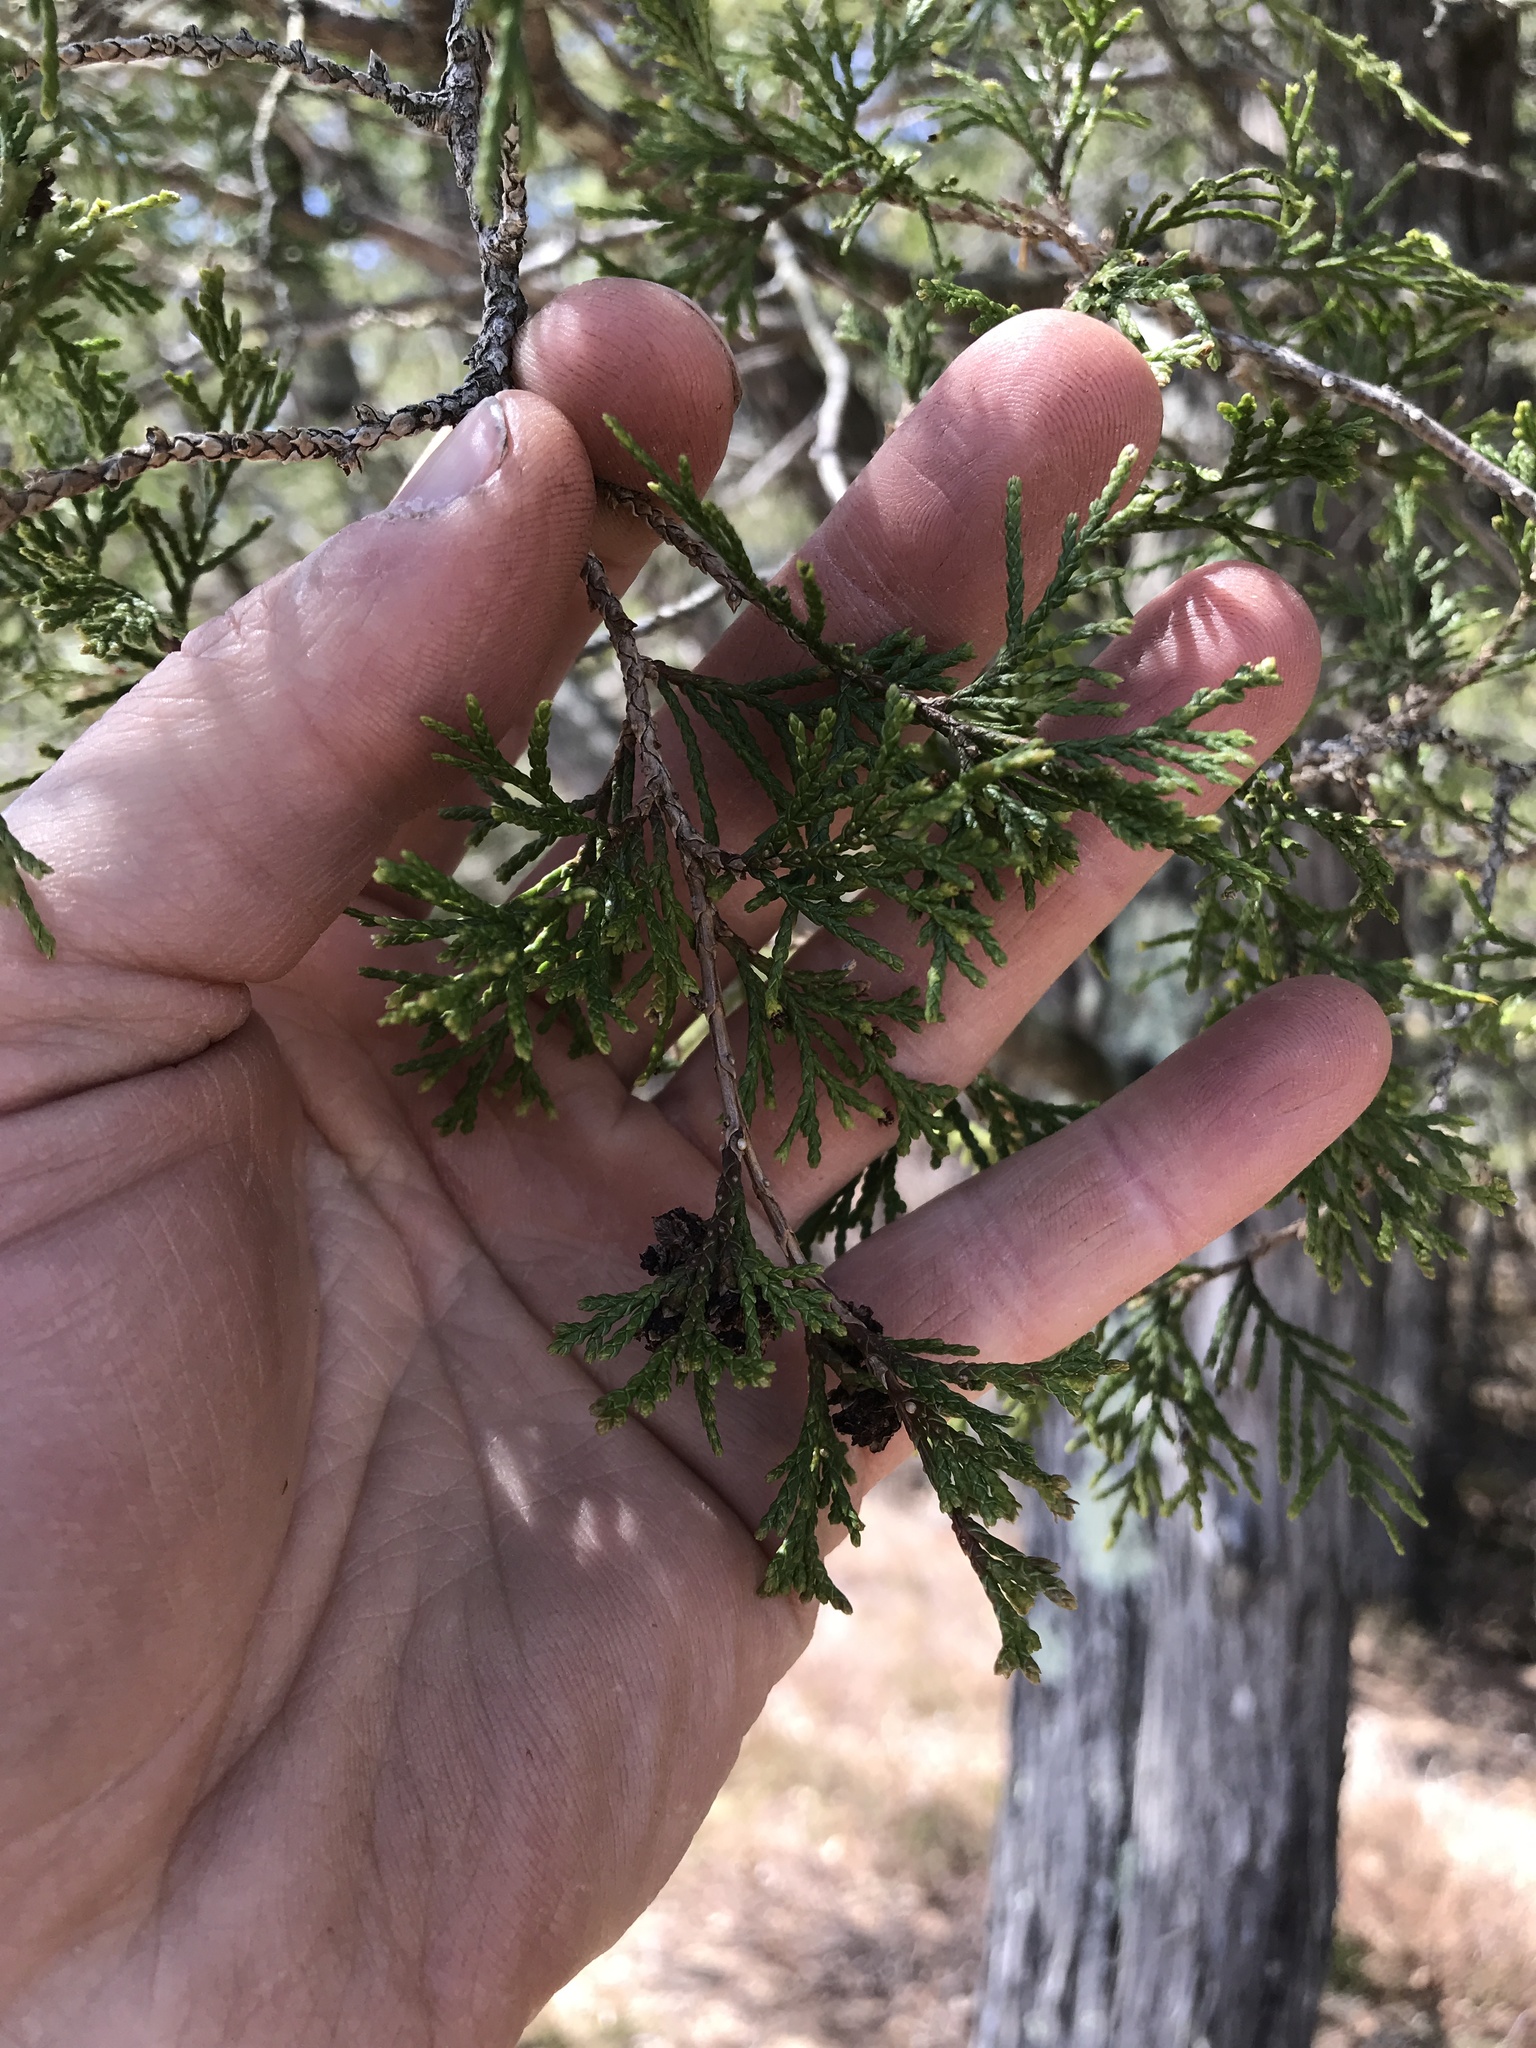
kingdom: Plantae
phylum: Tracheophyta
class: Pinopsida
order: Pinales
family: Cupressaceae
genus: Chamaecyparis
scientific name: Chamaecyparis thyoides
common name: Atlantic white cedar
